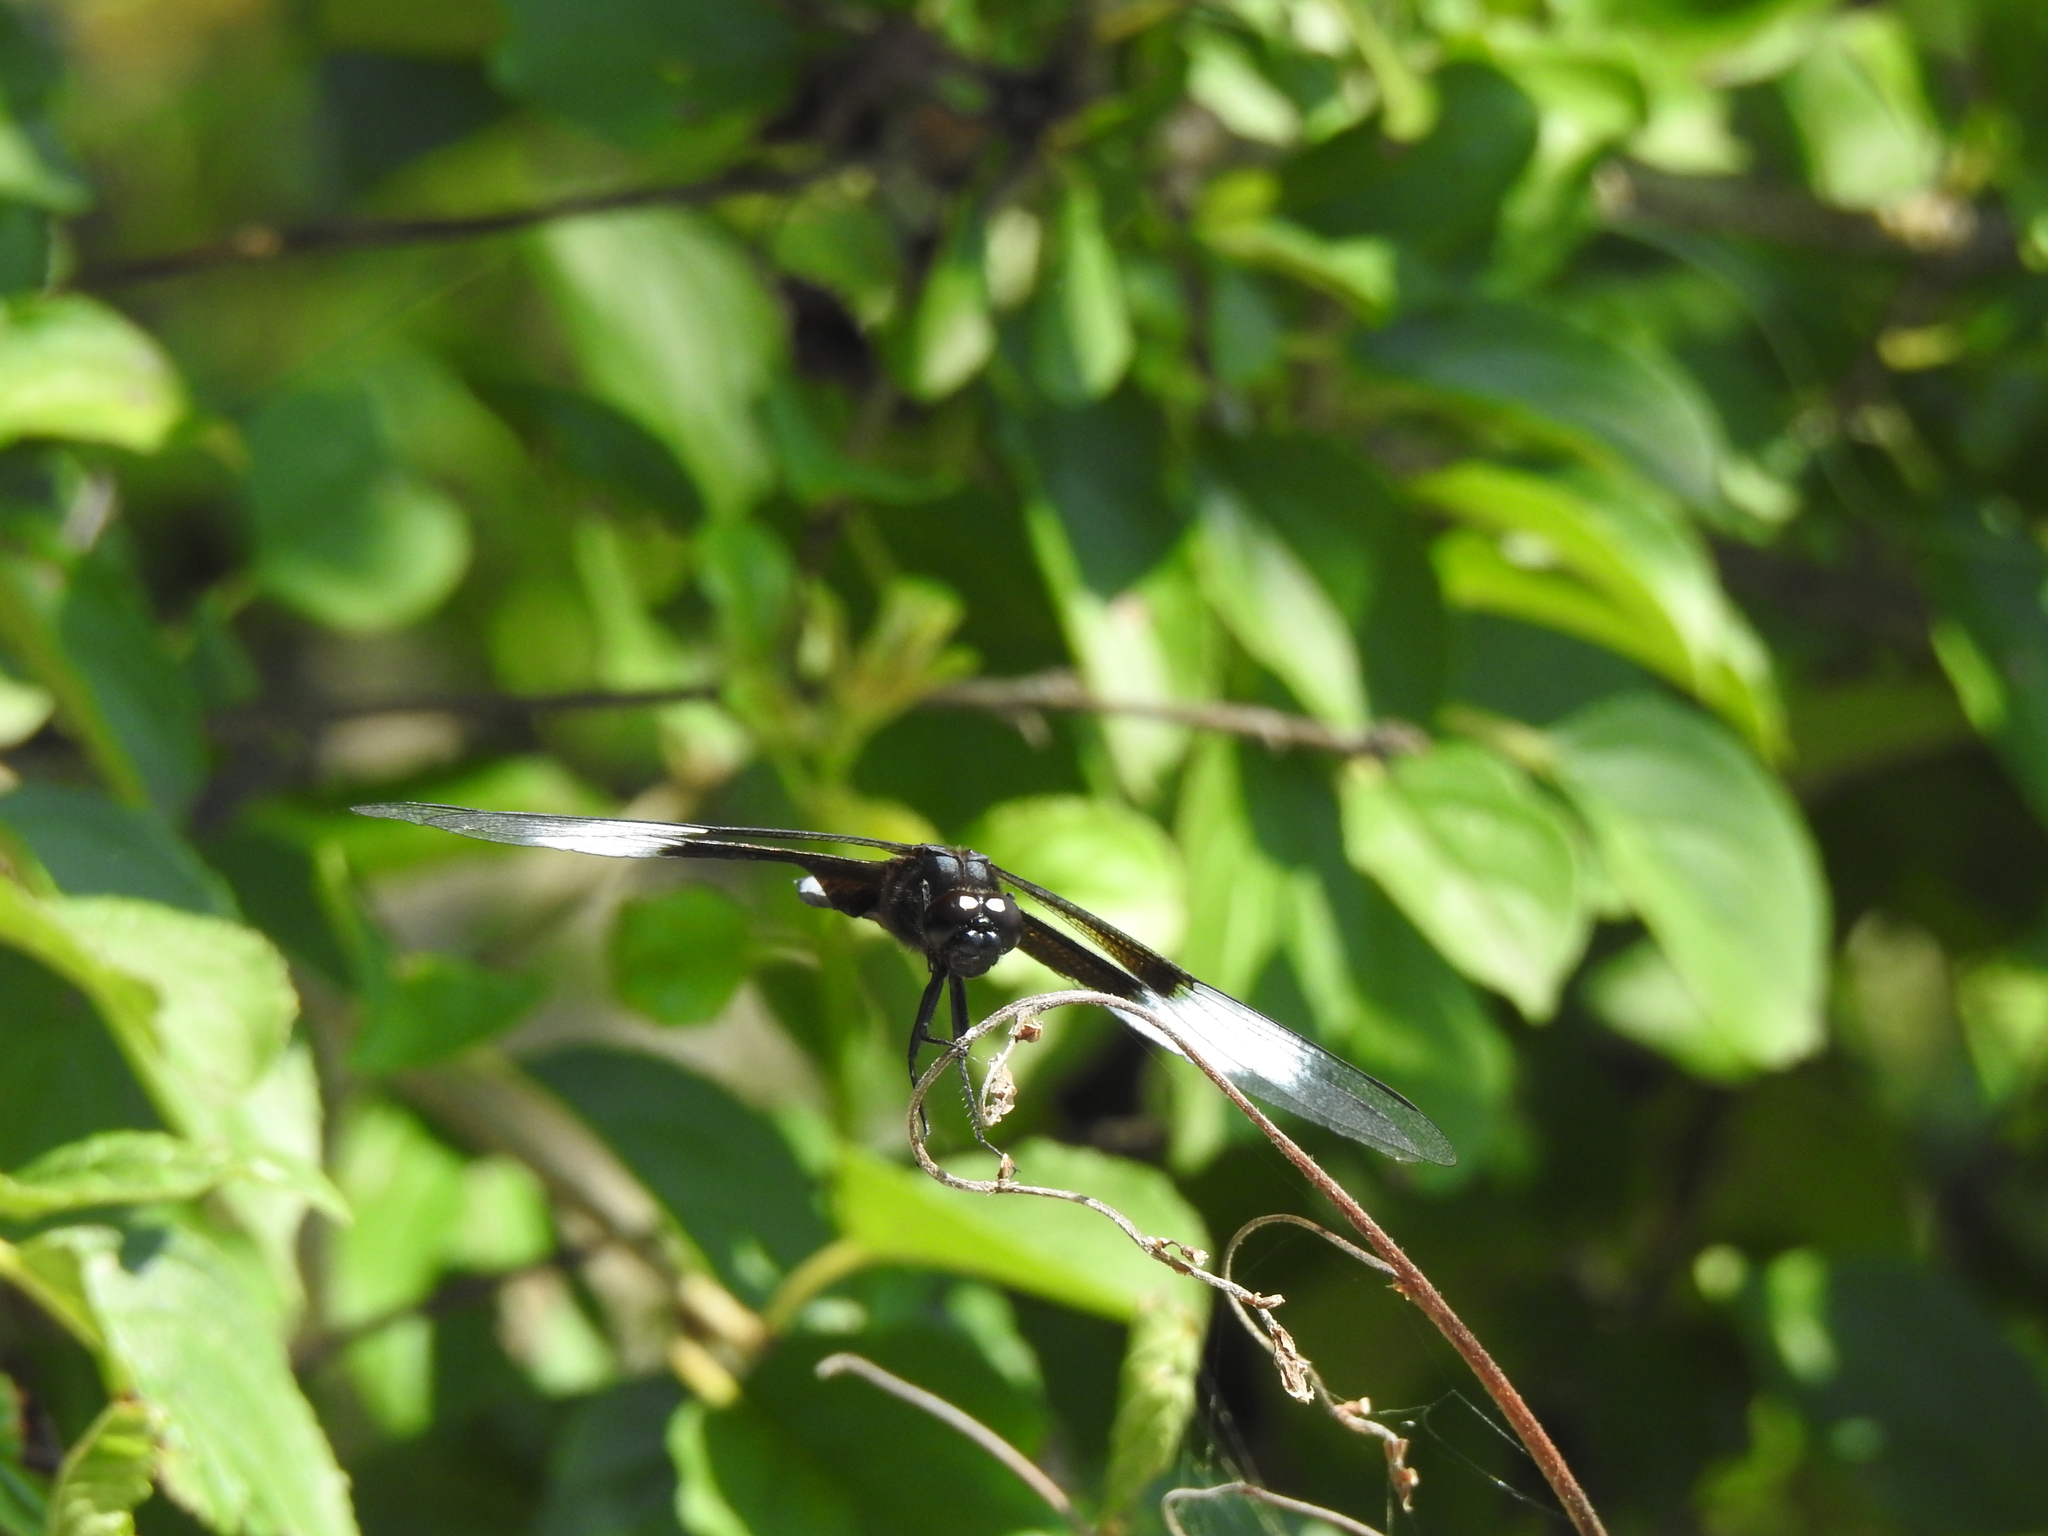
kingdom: Animalia
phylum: Arthropoda
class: Insecta
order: Odonata
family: Libellulidae
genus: Libellula
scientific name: Libellula luctuosa
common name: Widow skimmer
